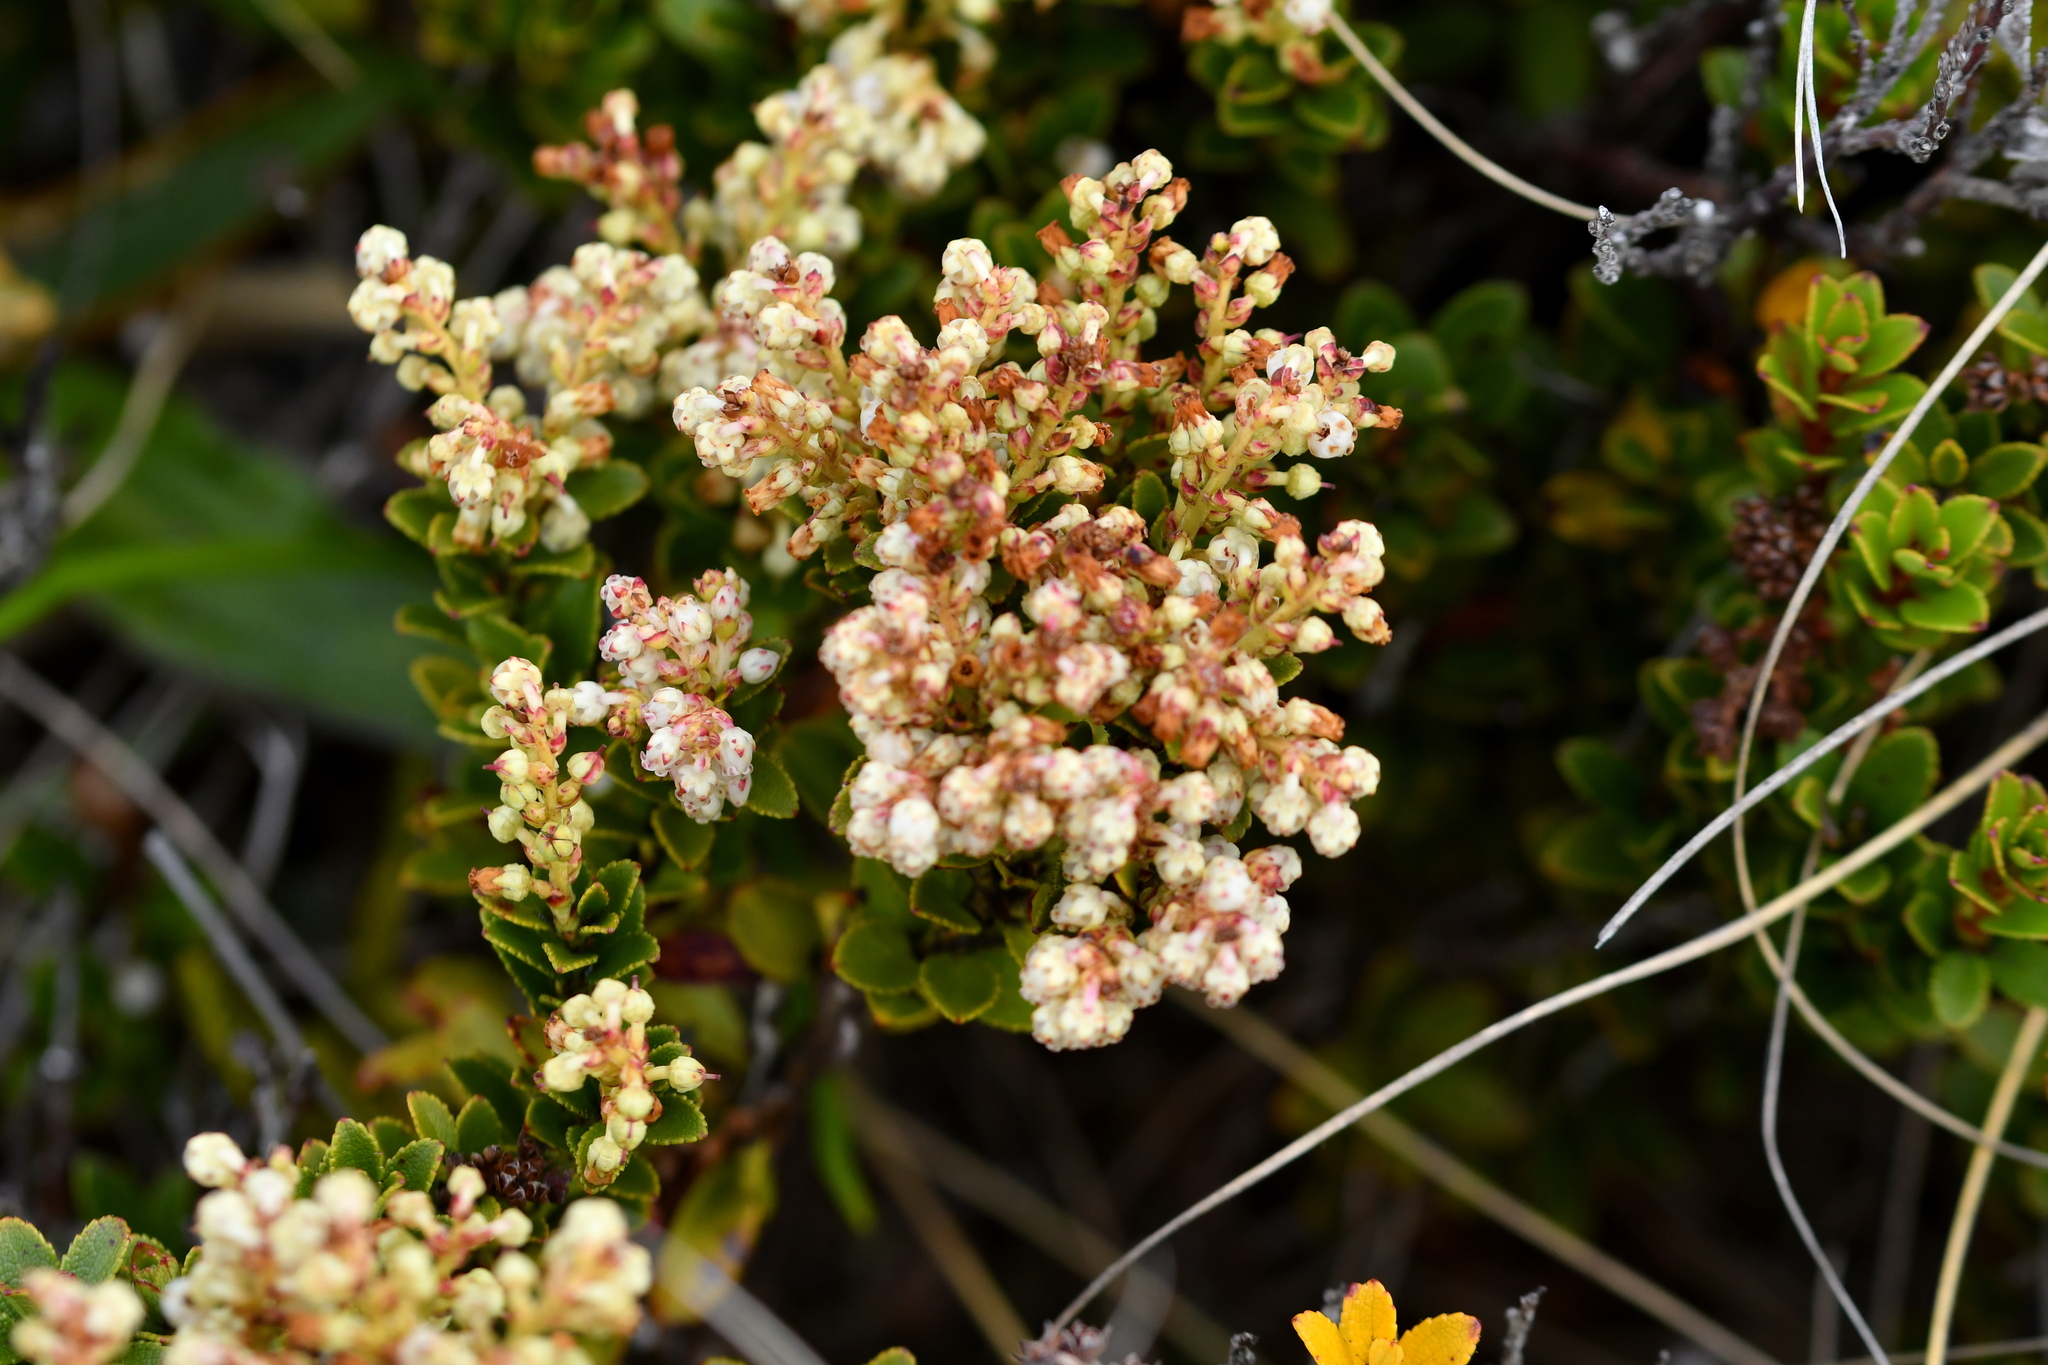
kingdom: Plantae
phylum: Tracheophyta
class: Magnoliopsida
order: Ericales
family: Ericaceae
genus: Gaultheria
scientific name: Gaultheria crassa
